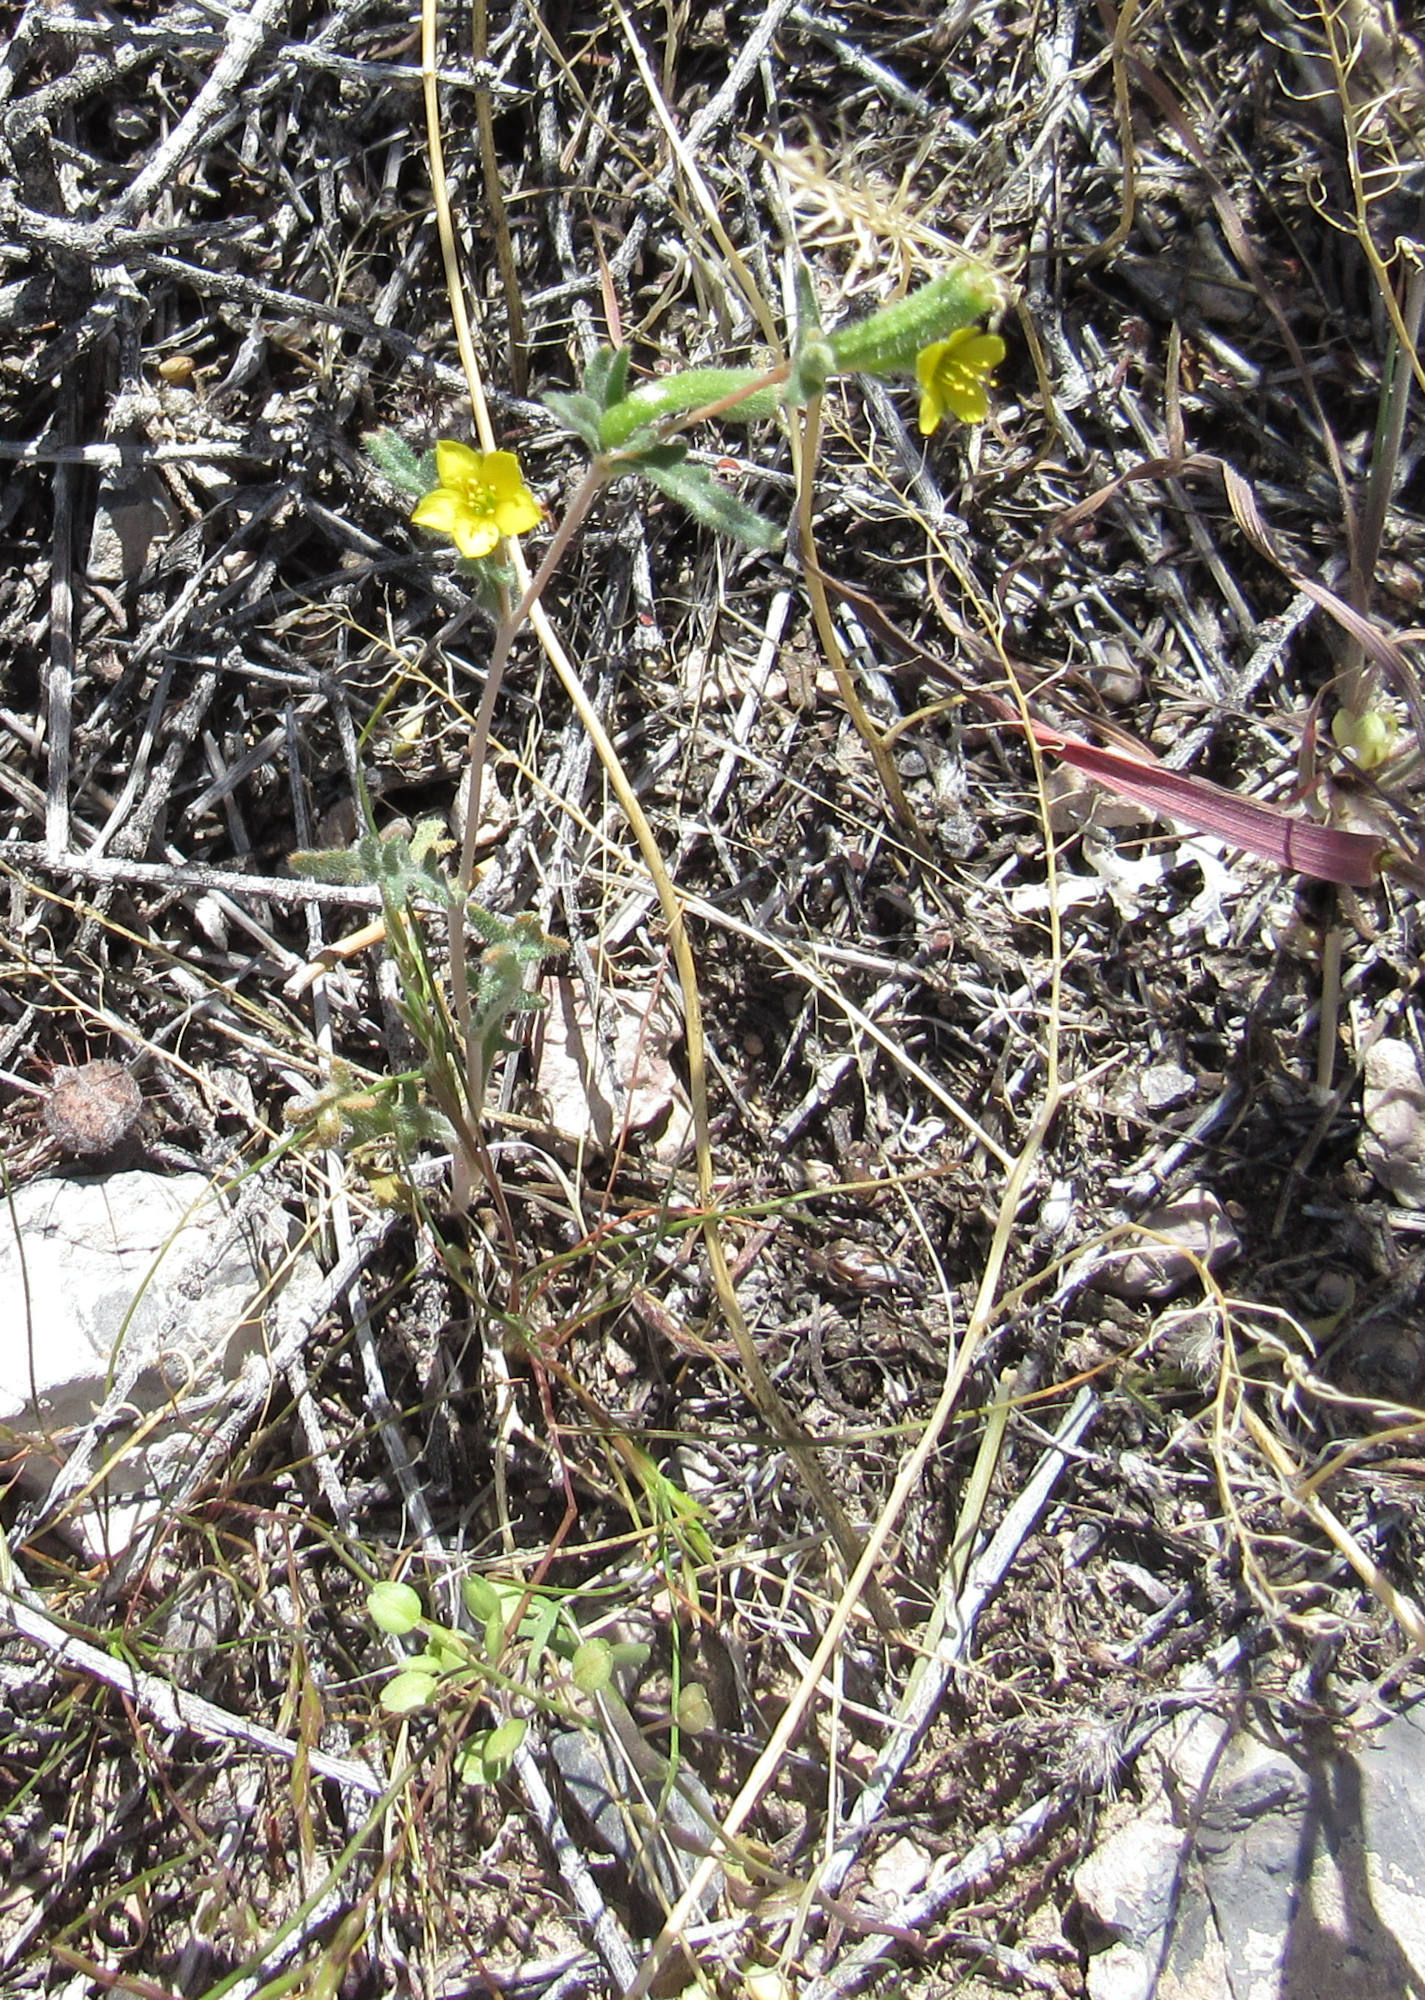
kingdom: Plantae
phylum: Tracheophyta
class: Magnoliopsida
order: Cornales
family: Loasaceae
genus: Mentzelia
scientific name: Mentzelia albicaulis
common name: White-stem blazingstar
